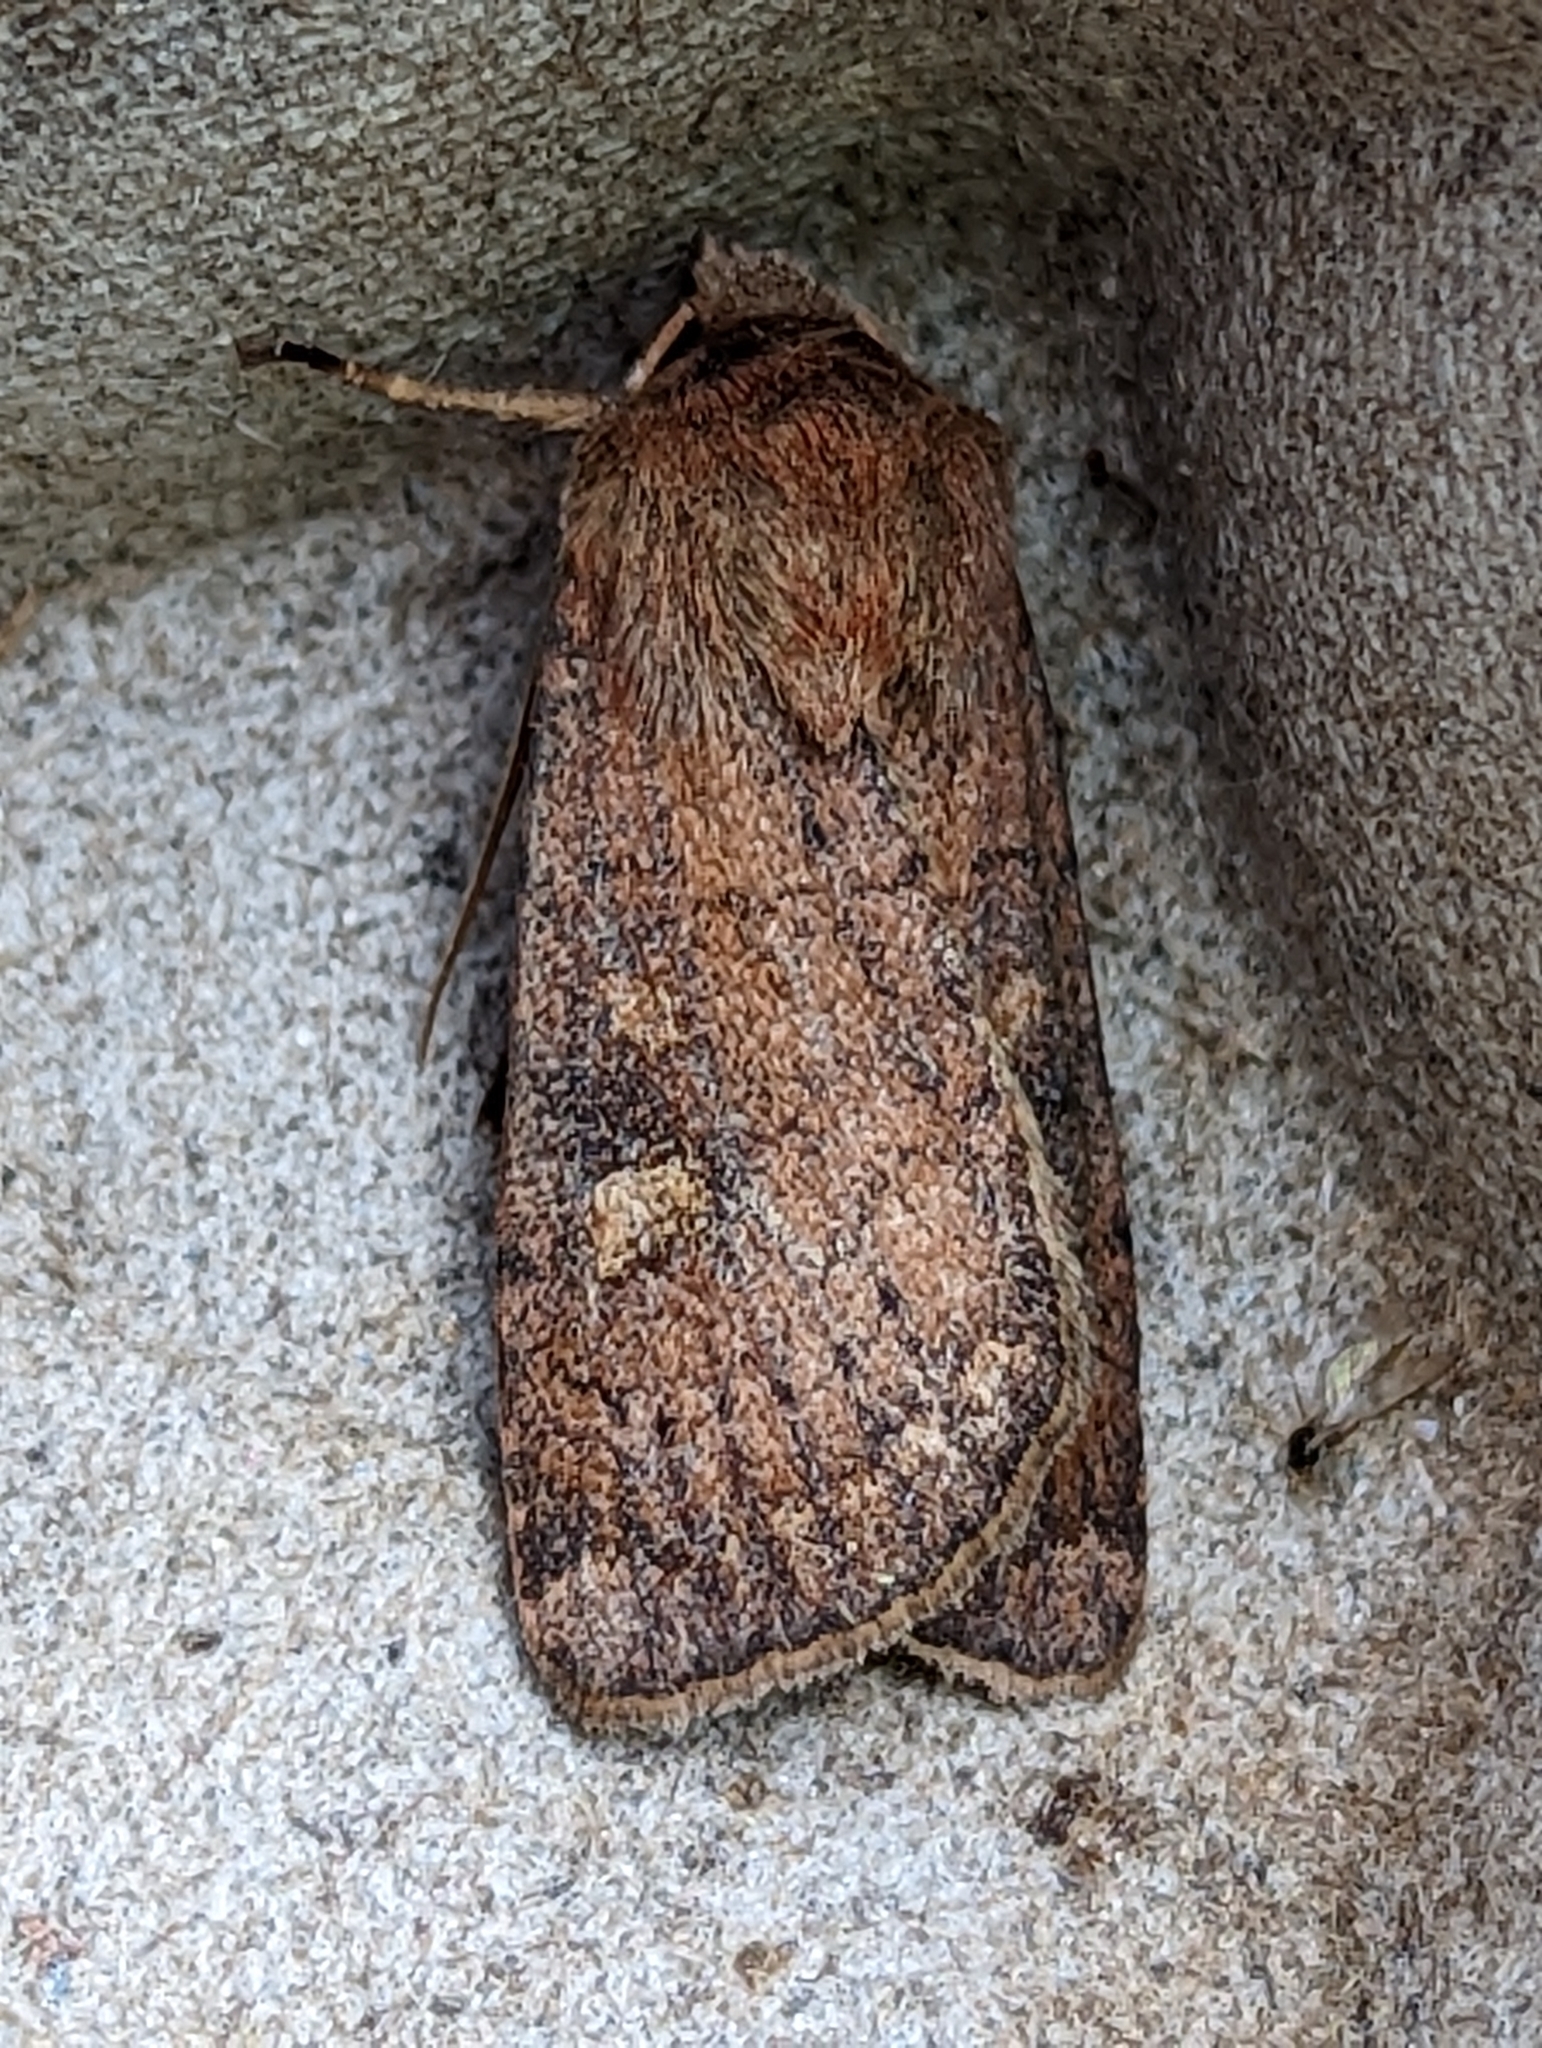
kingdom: Animalia
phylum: Arthropoda
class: Insecta
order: Lepidoptera
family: Noctuidae
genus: Xestia
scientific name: Xestia xanthographa
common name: Square-spot rustic
